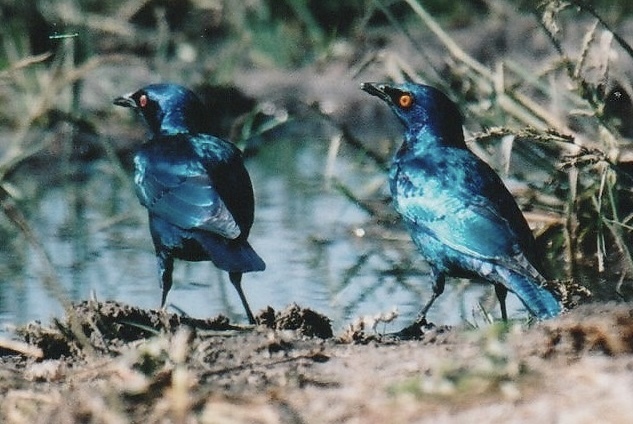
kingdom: Animalia
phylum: Chordata
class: Aves
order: Passeriformes
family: Sturnidae
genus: Lamprotornis
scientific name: Lamprotornis nitens
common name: Cape starling
